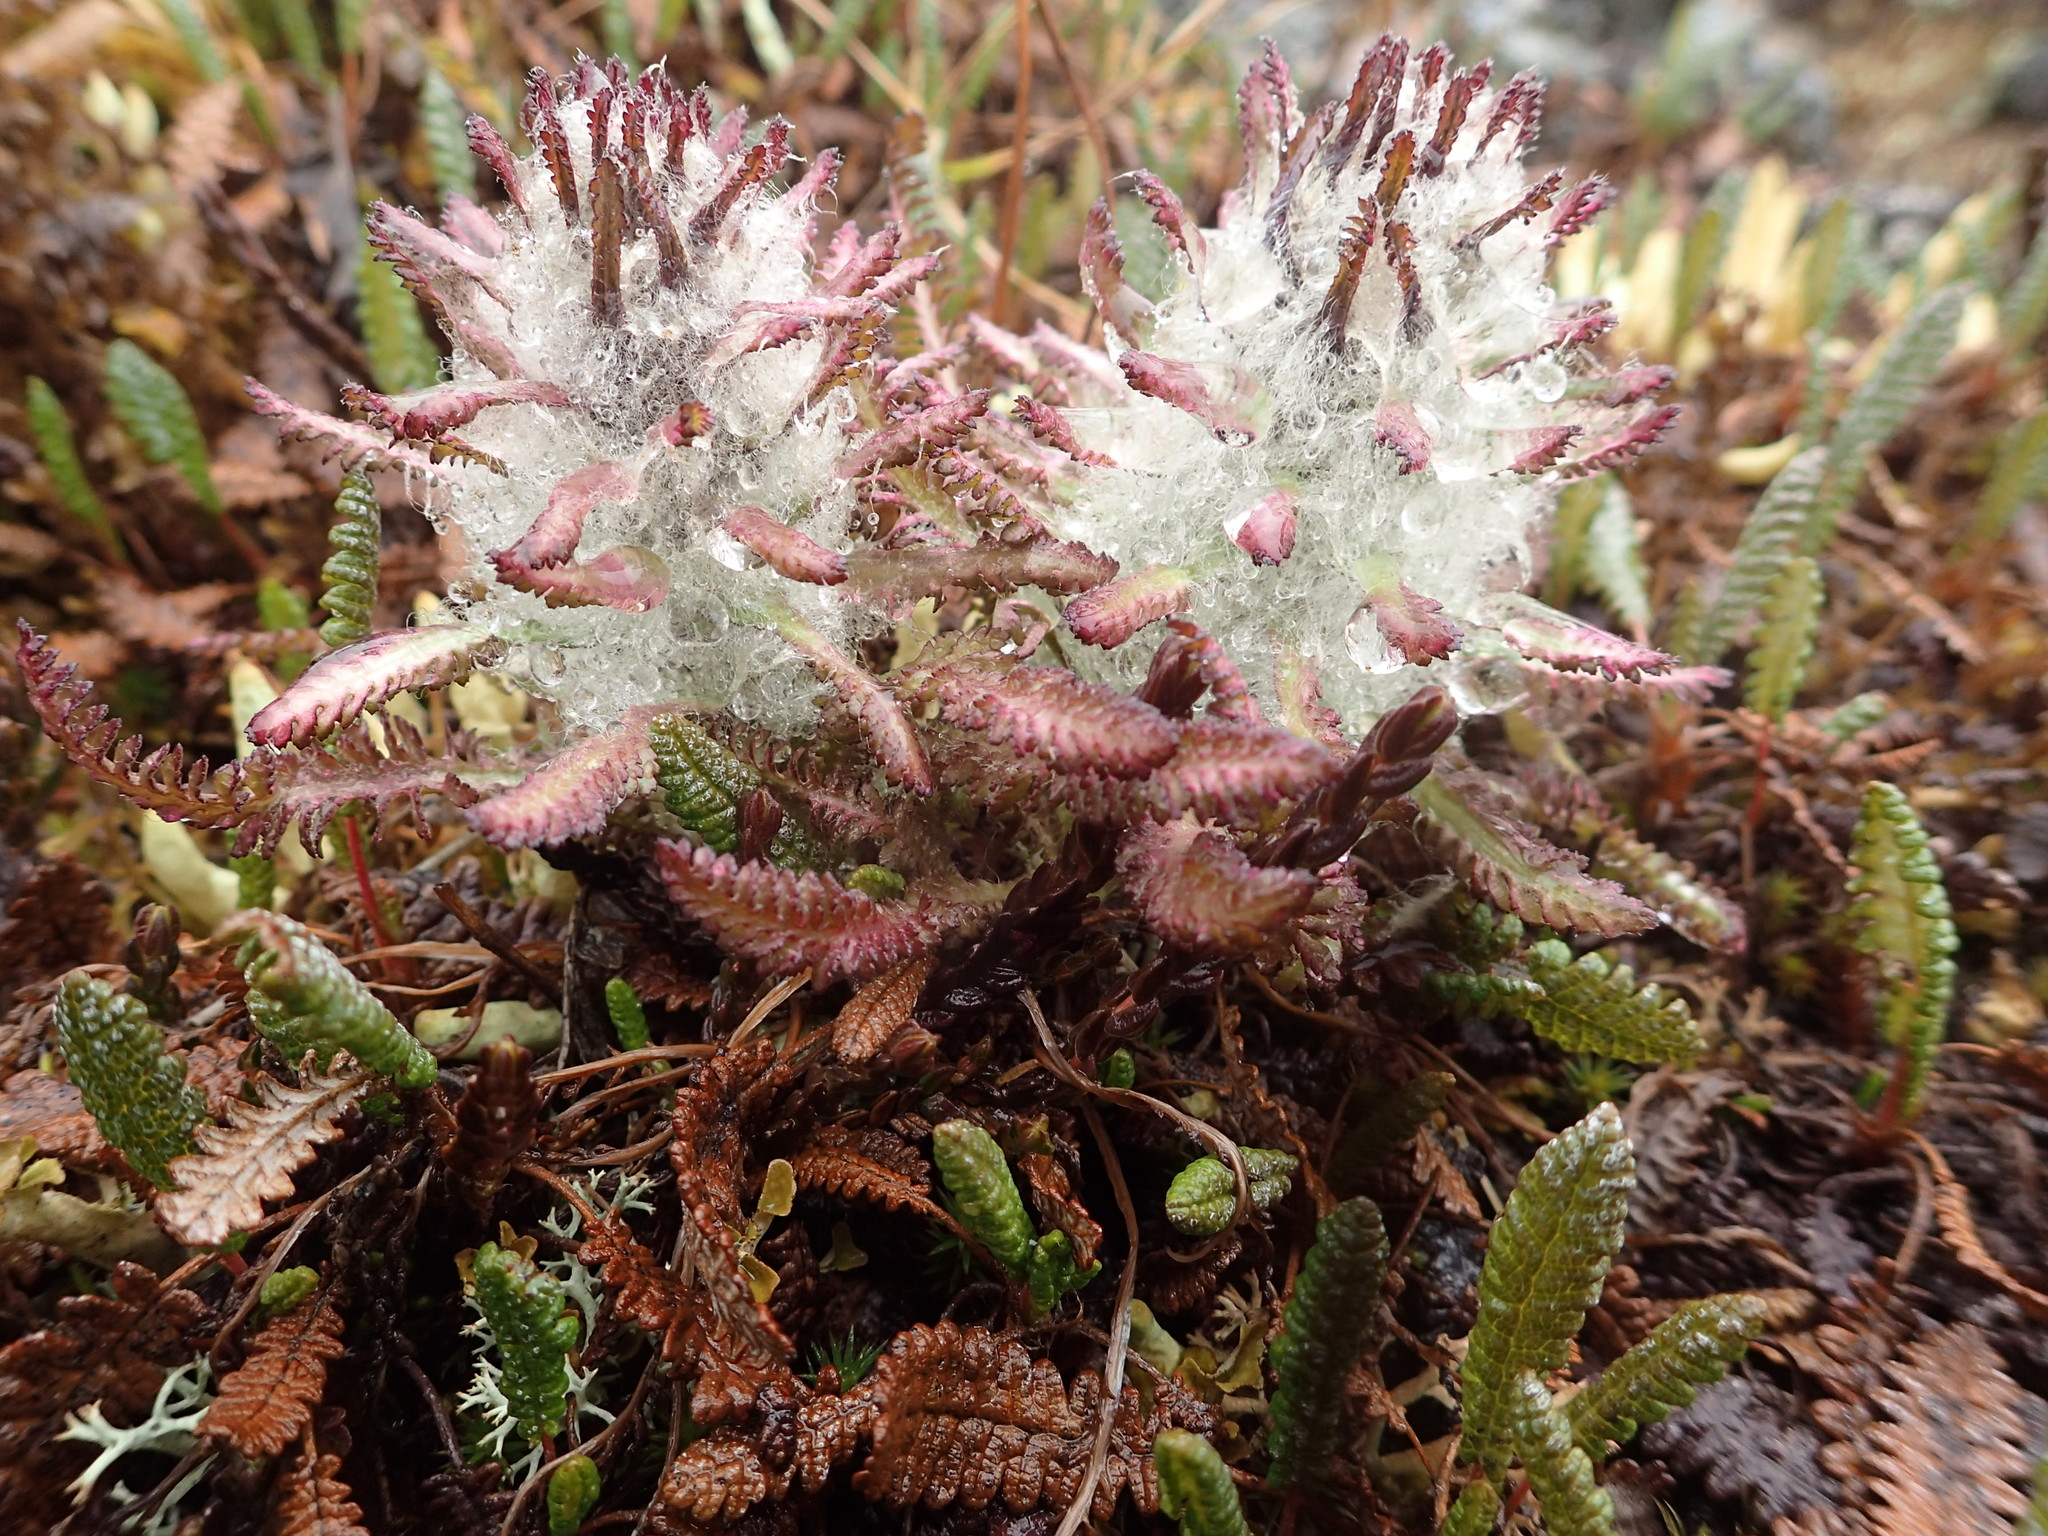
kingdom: Plantae
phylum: Tracheophyta
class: Magnoliopsida
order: Lamiales
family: Orobanchaceae
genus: Pedicularis
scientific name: Pedicularis lanata
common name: Woolly lousewort
